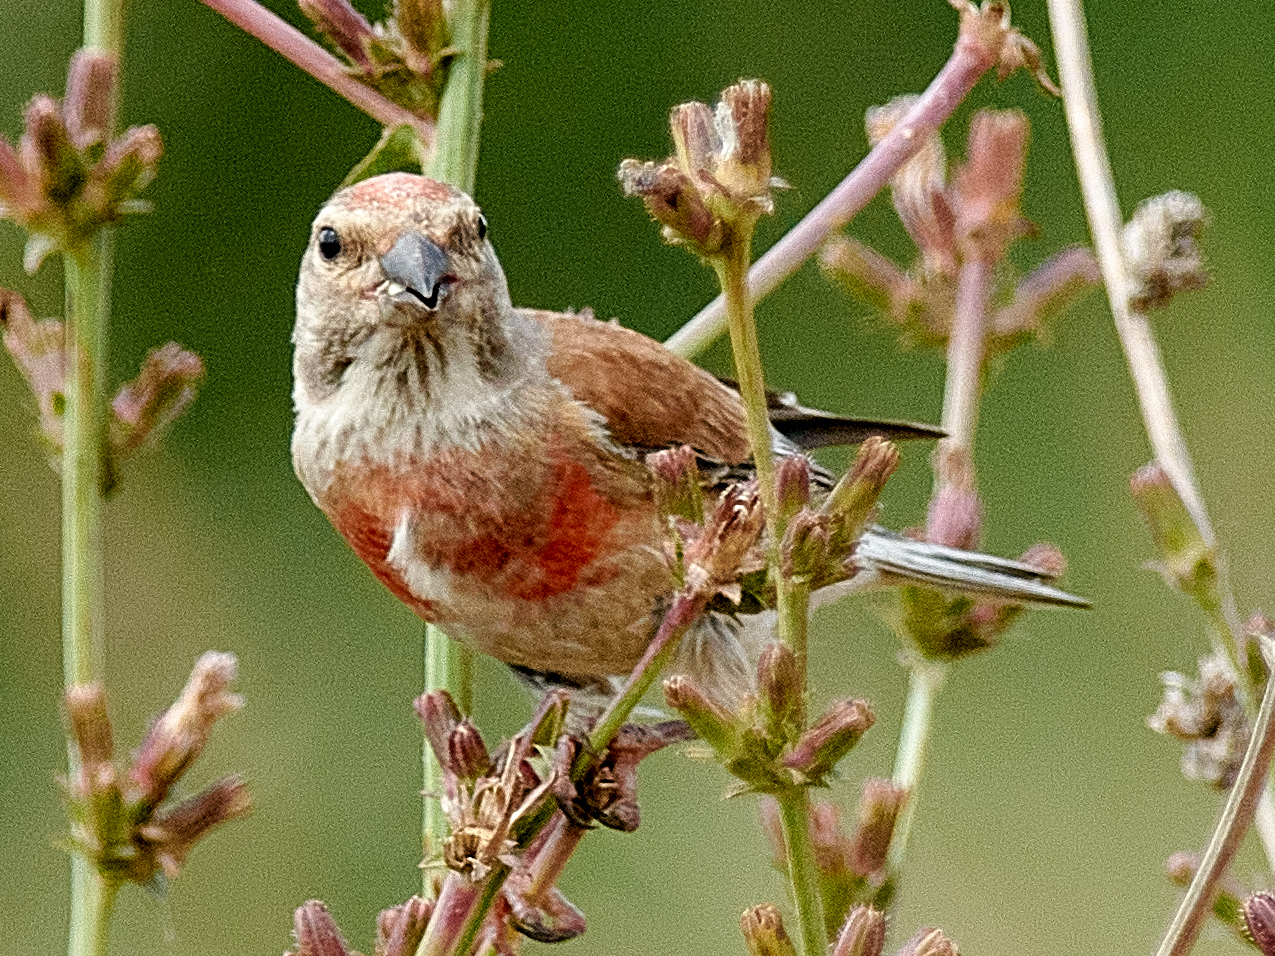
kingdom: Animalia
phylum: Chordata
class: Aves
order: Passeriformes
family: Fringillidae
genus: Linaria
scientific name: Linaria cannabina
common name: Common linnet
